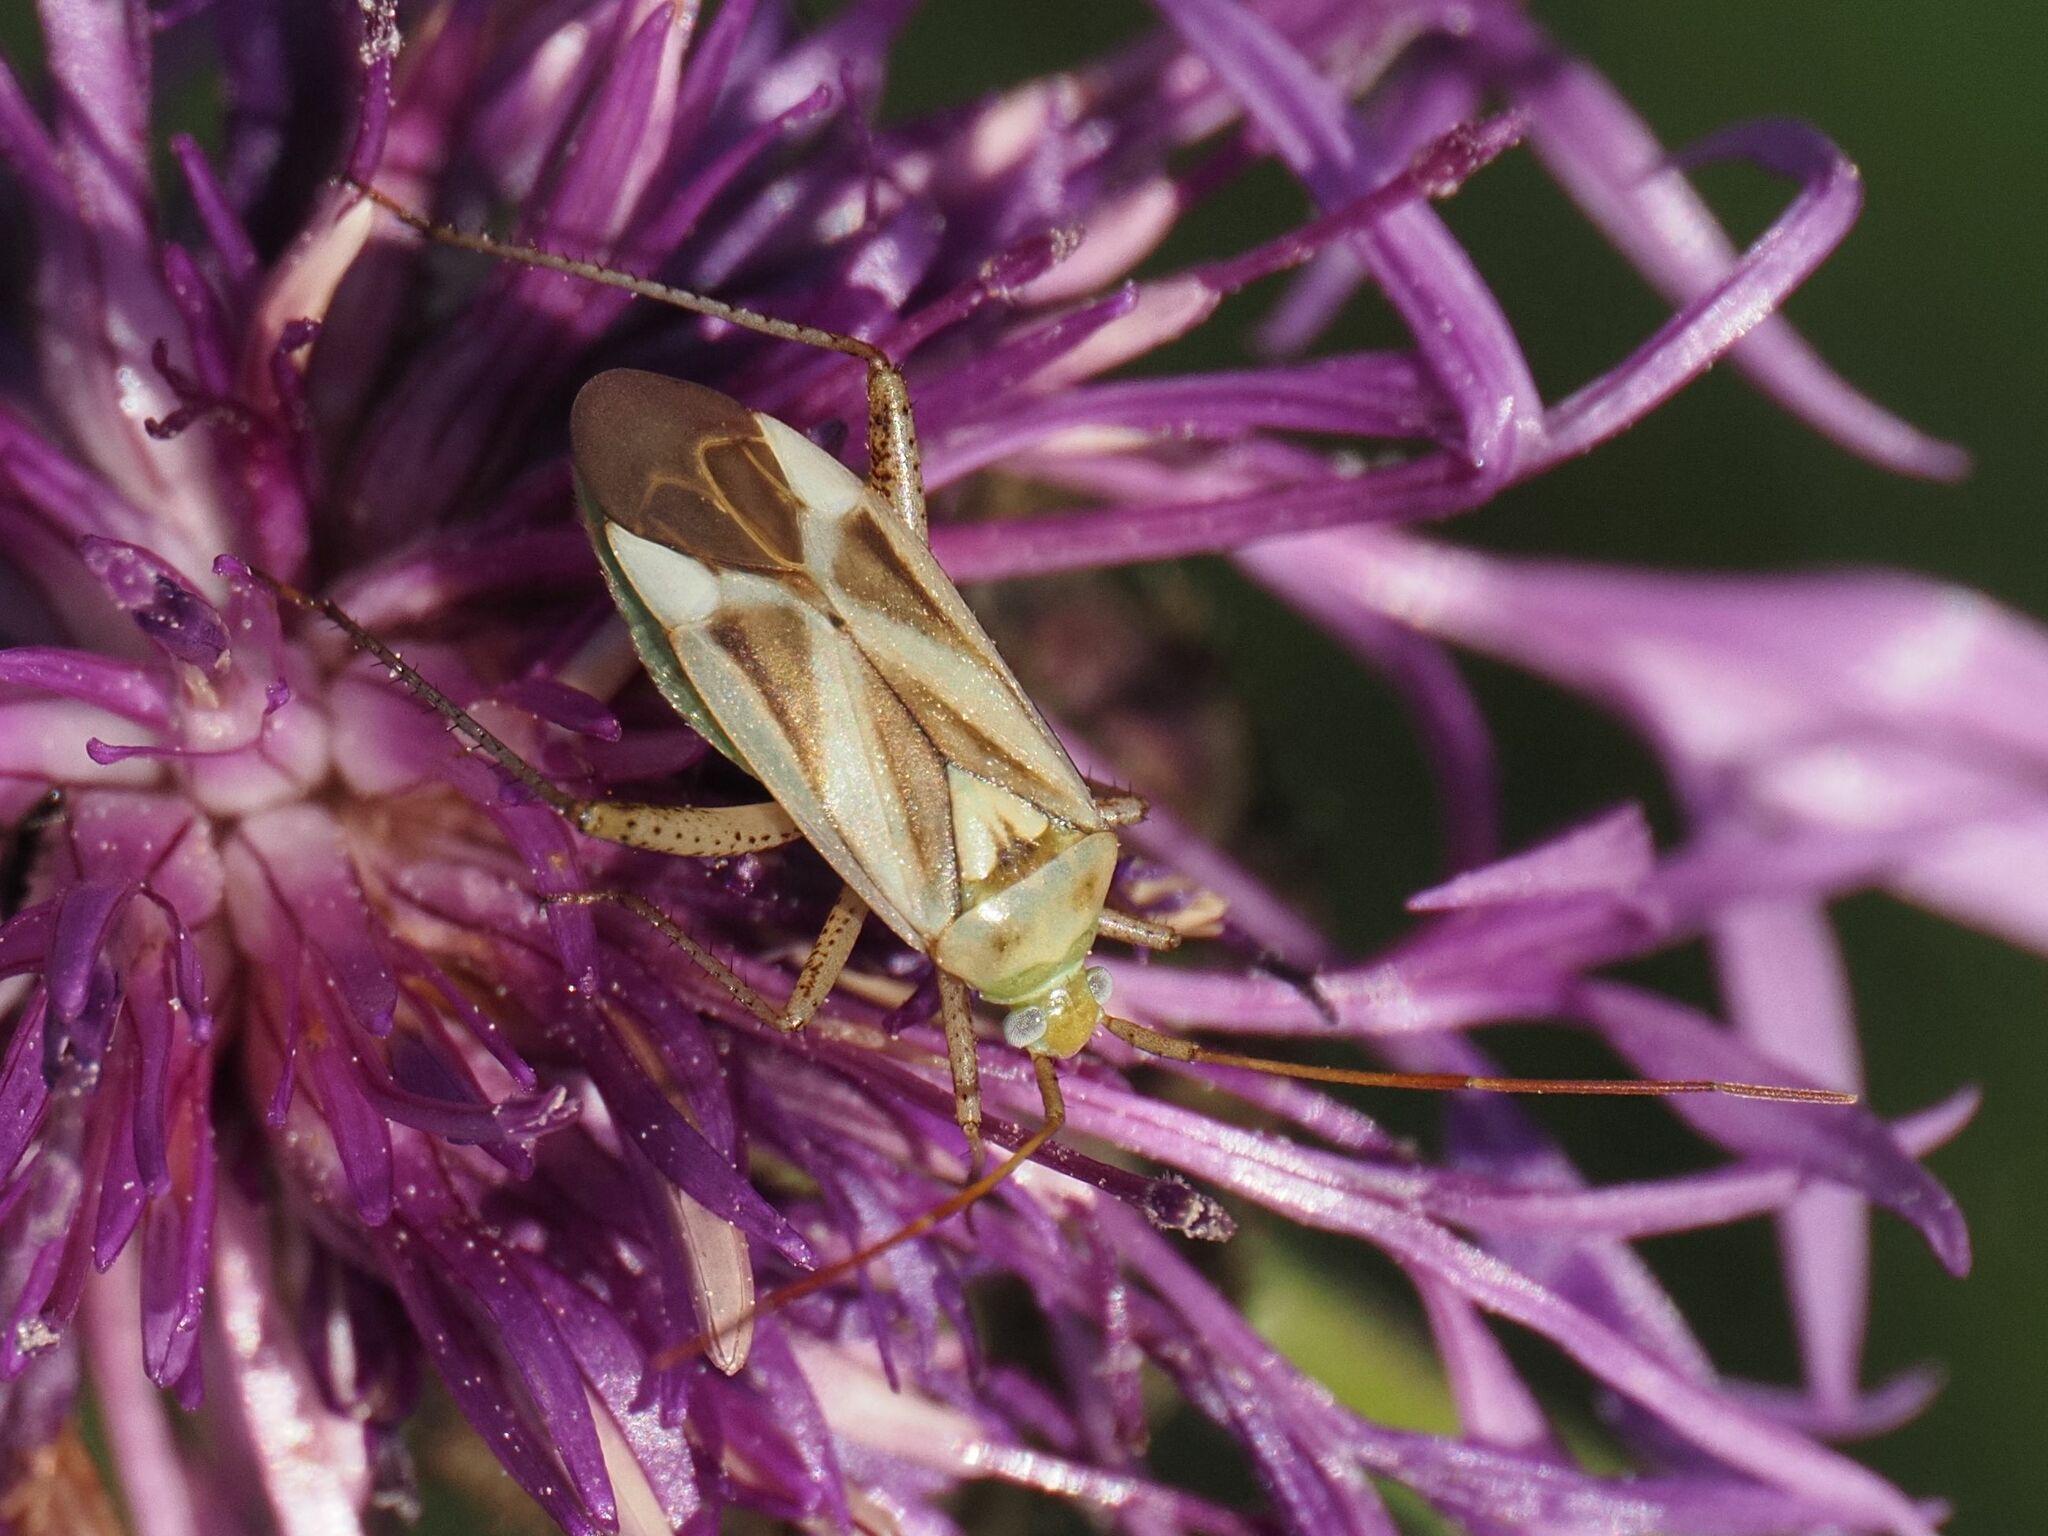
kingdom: Animalia
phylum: Arthropoda
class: Insecta
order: Hemiptera
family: Miridae
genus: Adelphocoris
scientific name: Adelphocoris lineolatus
